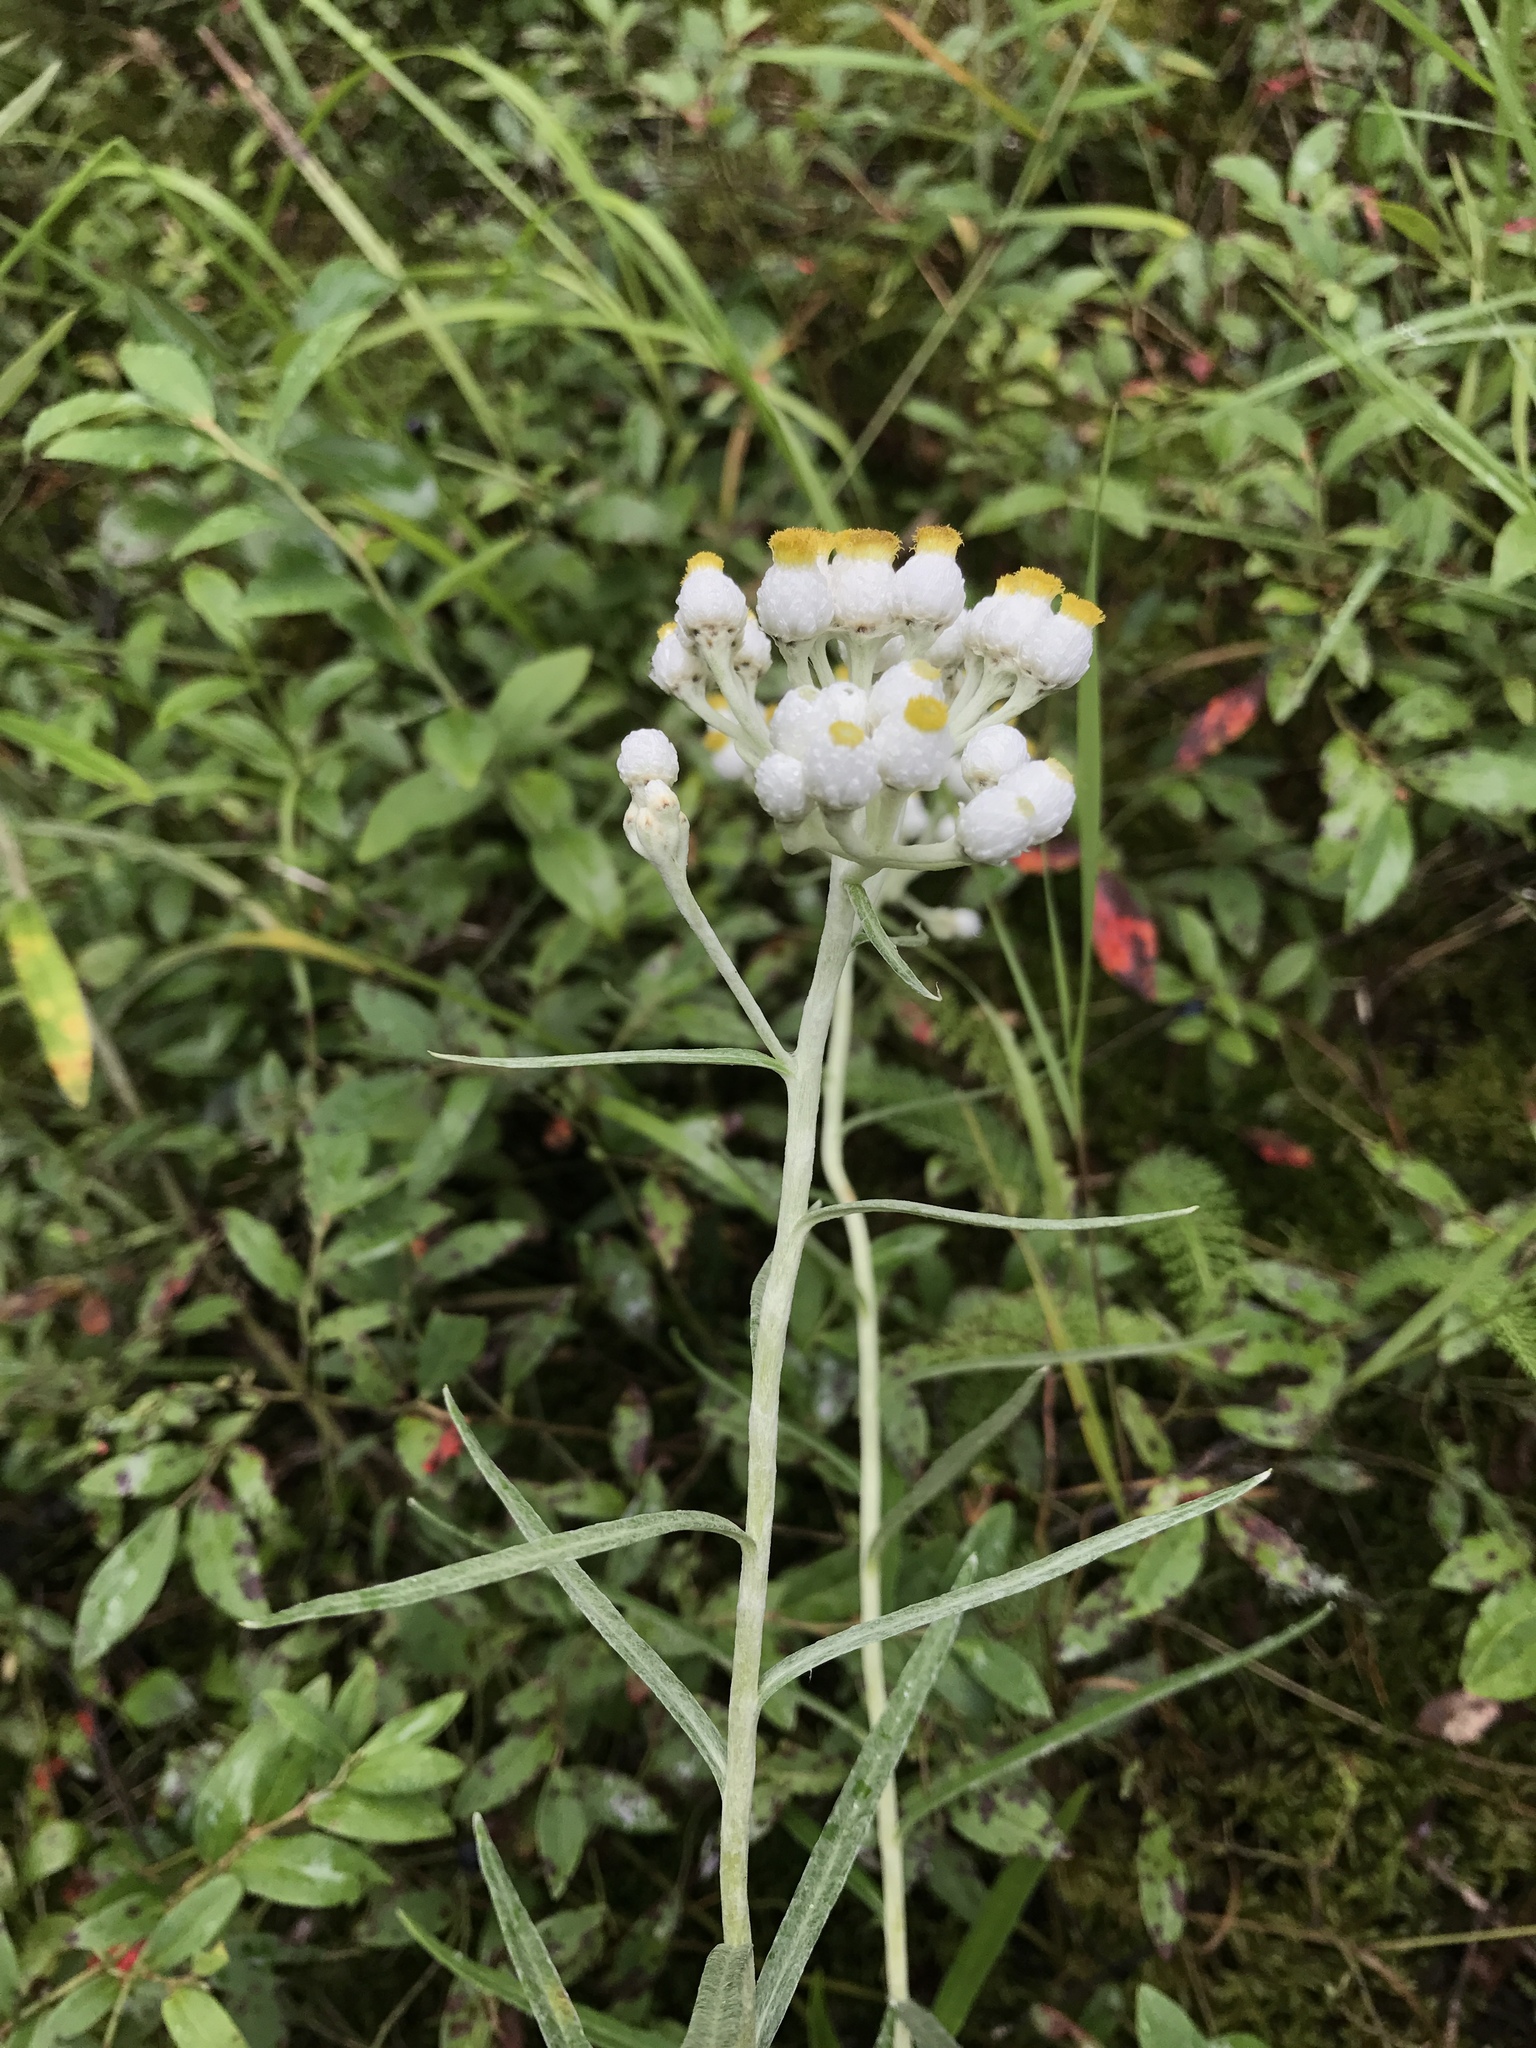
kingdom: Plantae
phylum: Tracheophyta
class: Magnoliopsida
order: Asterales
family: Asteraceae
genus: Anaphalis
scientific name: Anaphalis margaritacea
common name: Pearly everlasting
